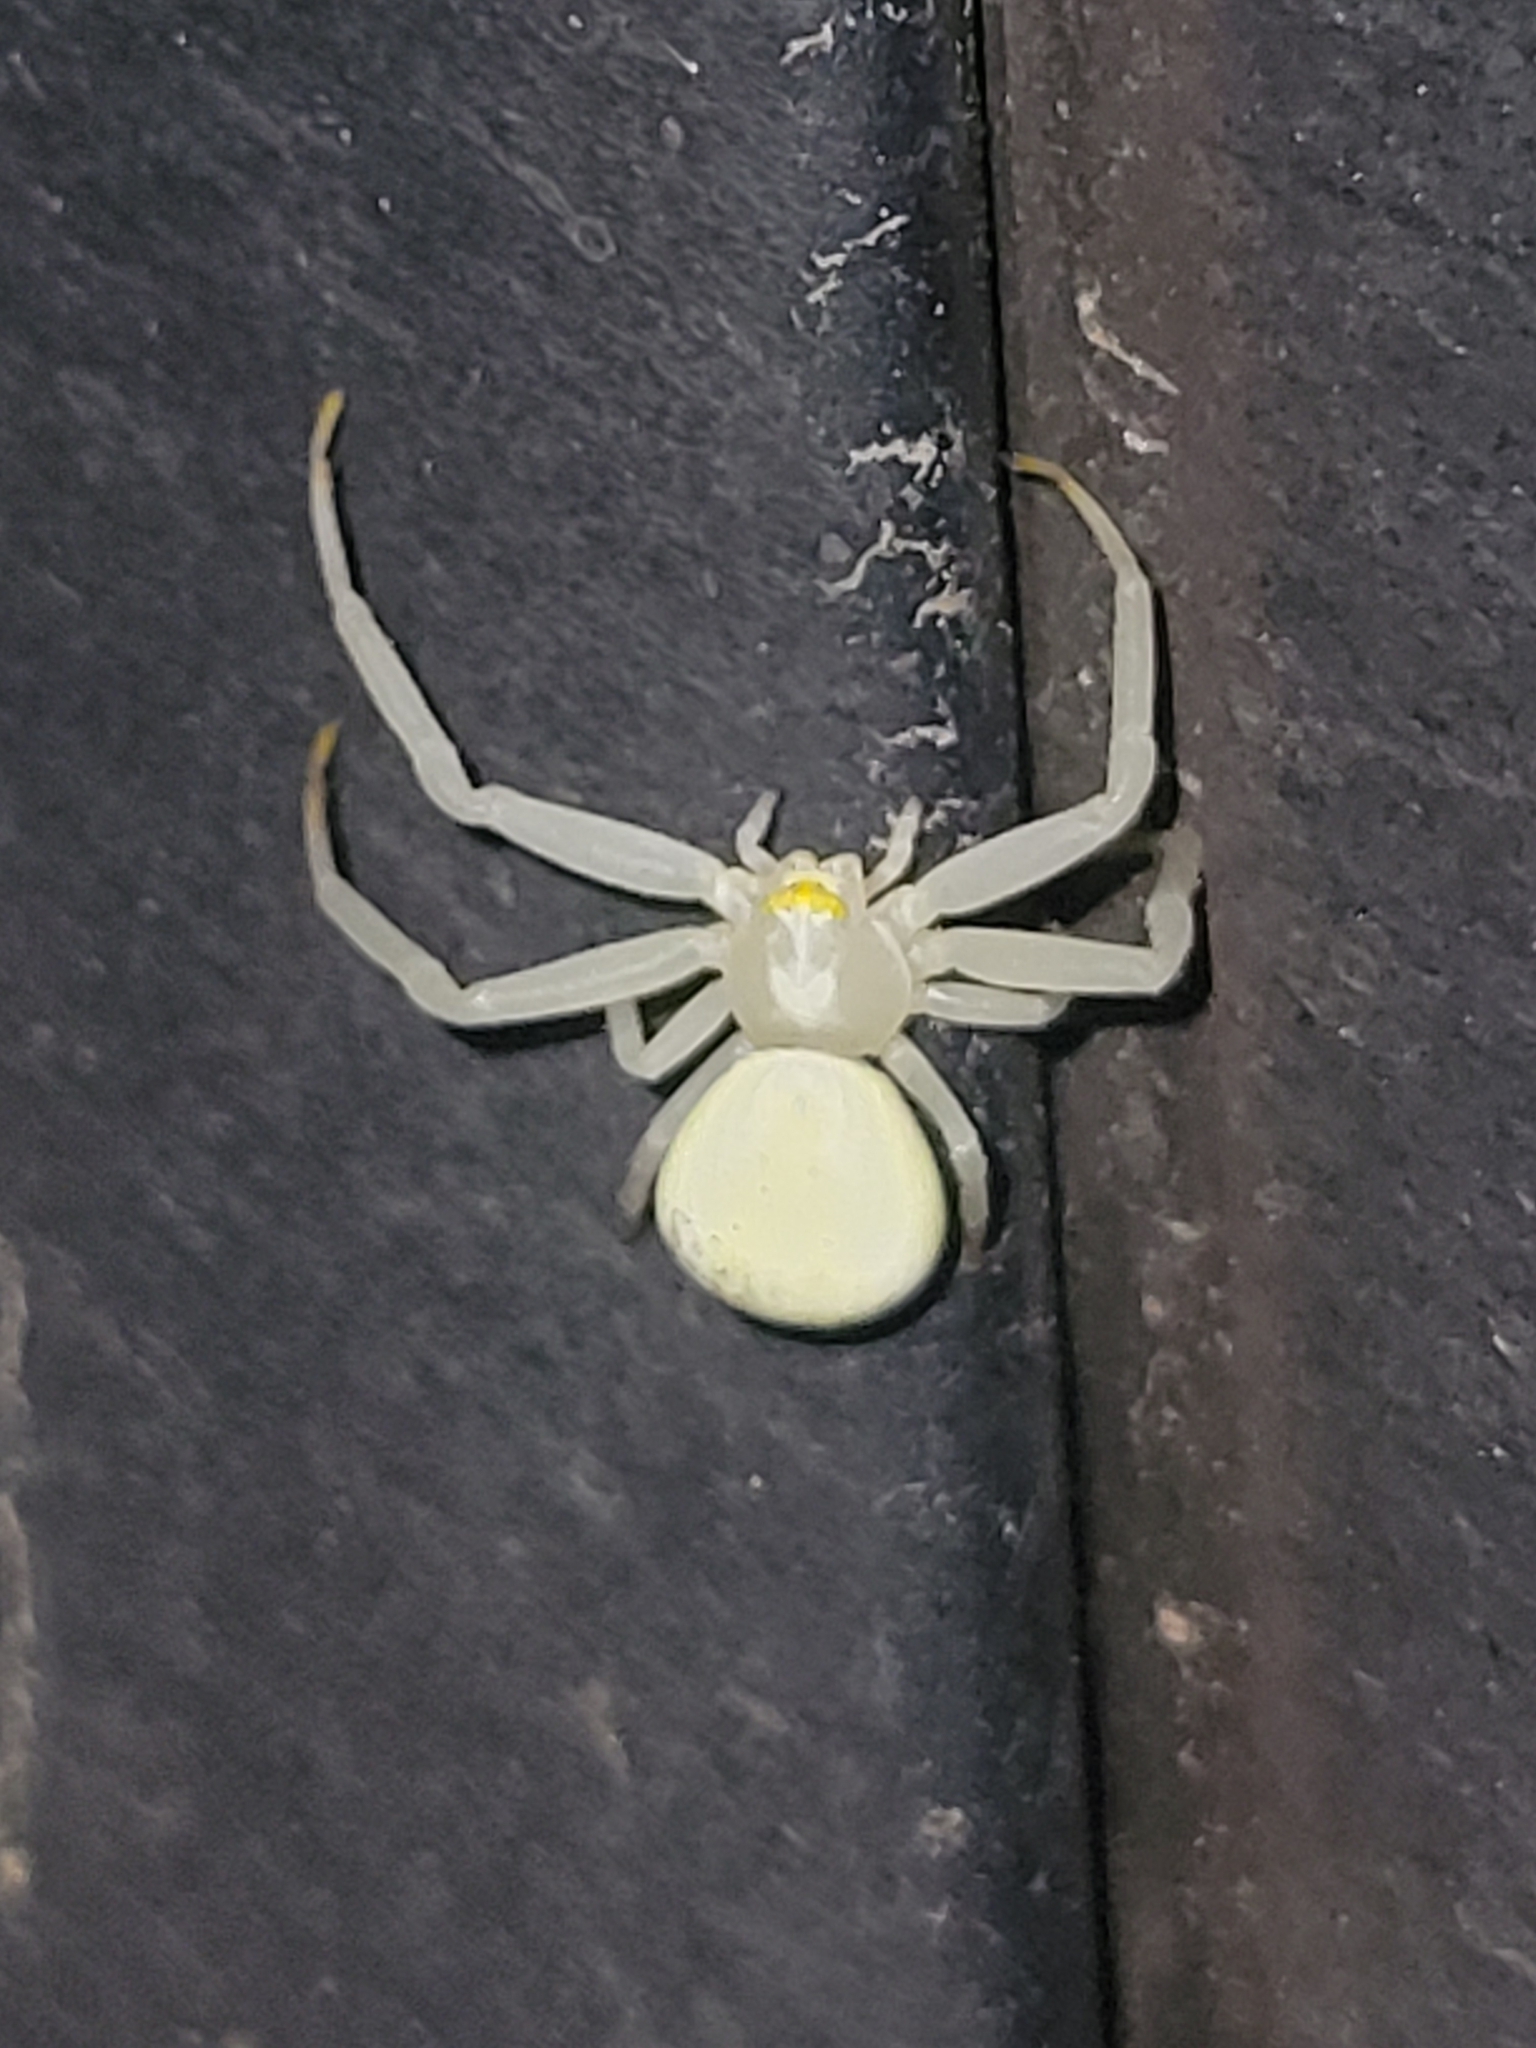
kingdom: Animalia
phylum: Arthropoda
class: Arachnida
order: Araneae
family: Thomisidae
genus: Misumena
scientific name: Misumena vatia
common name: Goldenrod crab spider
